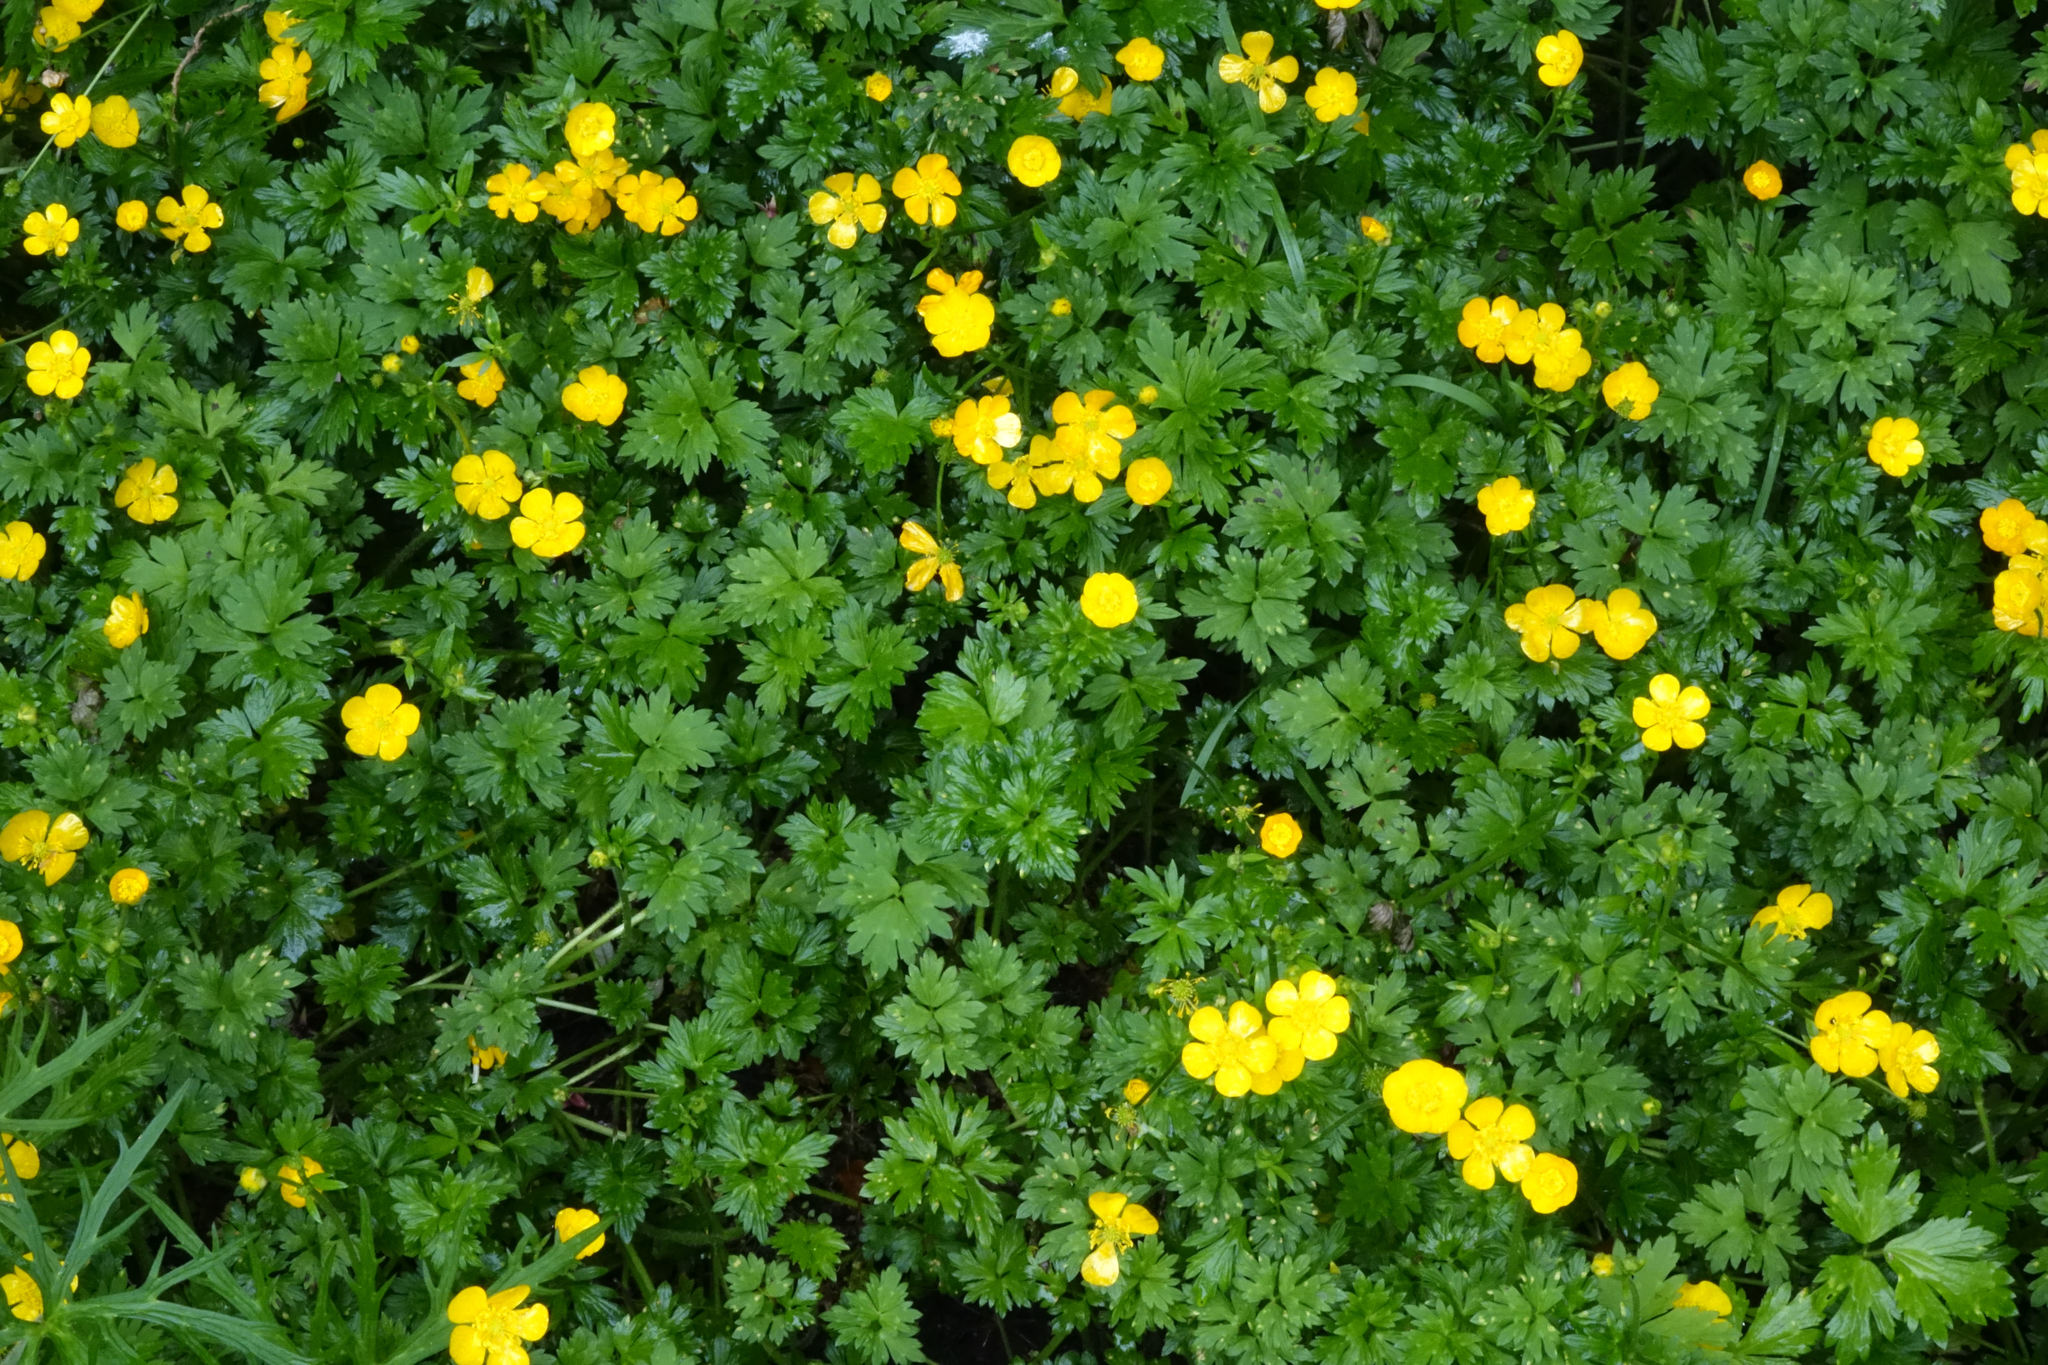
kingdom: Plantae
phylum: Tracheophyta
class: Magnoliopsida
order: Ranunculales
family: Ranunculaceae
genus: Ranunculus
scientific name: Ranunculus repens
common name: Creeping buttercup
